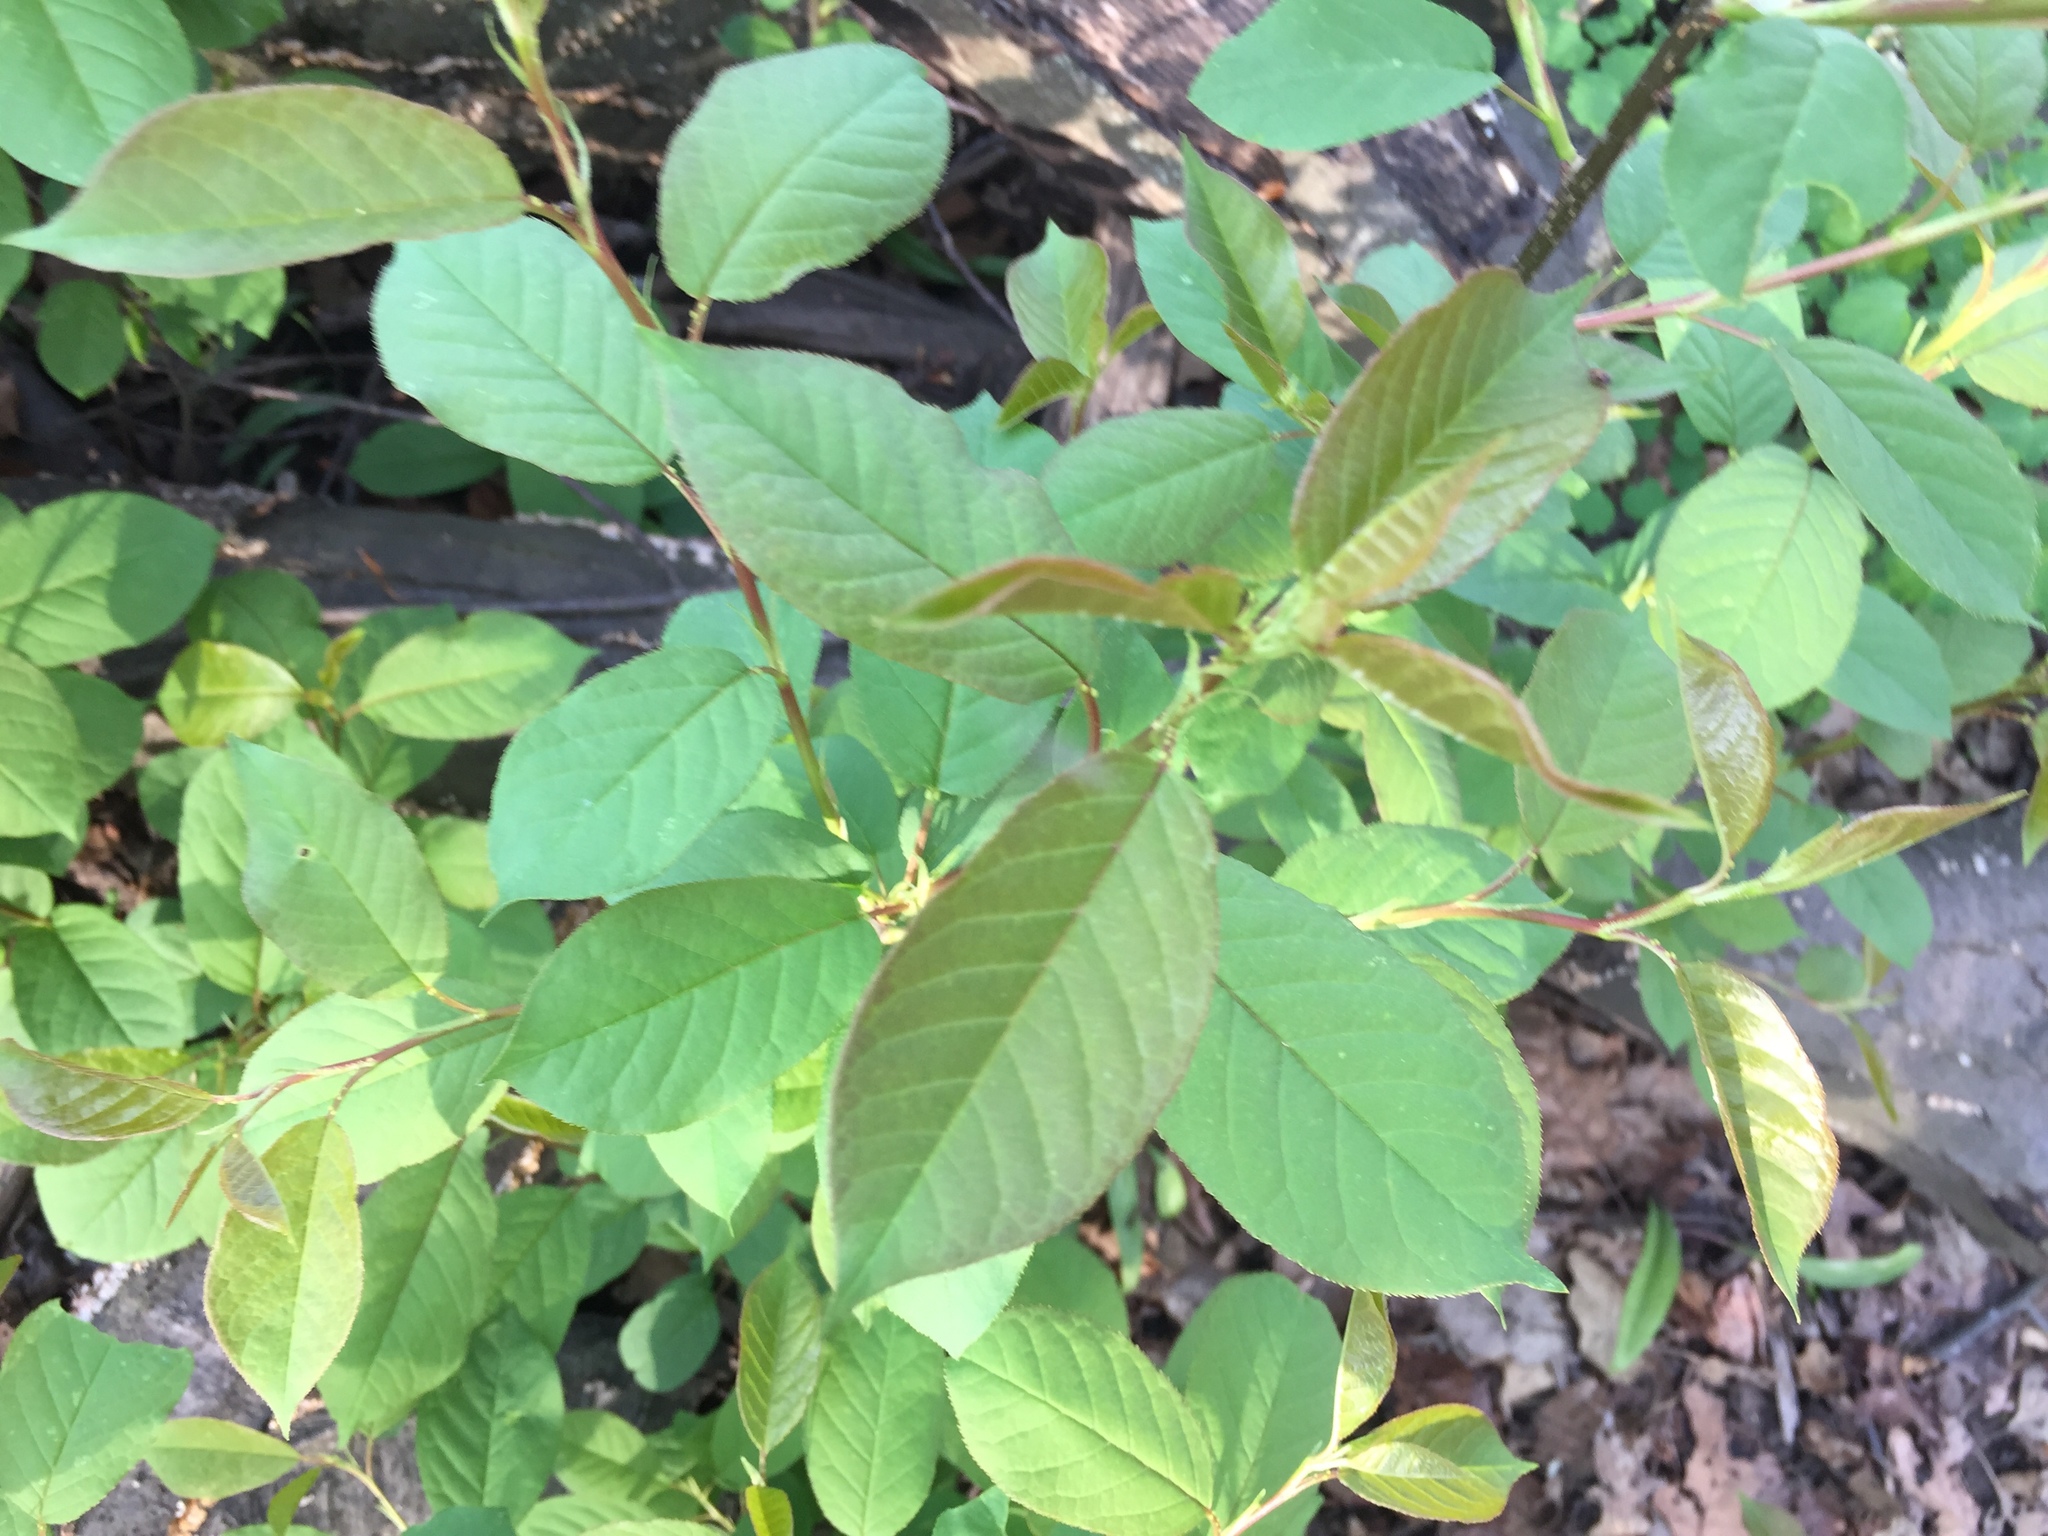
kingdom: Plantae
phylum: Tracheophyta
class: Magnoliopsida
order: Rosales
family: Rosaceae
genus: Prunus
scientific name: Prunus virginiana
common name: Chokecherry
